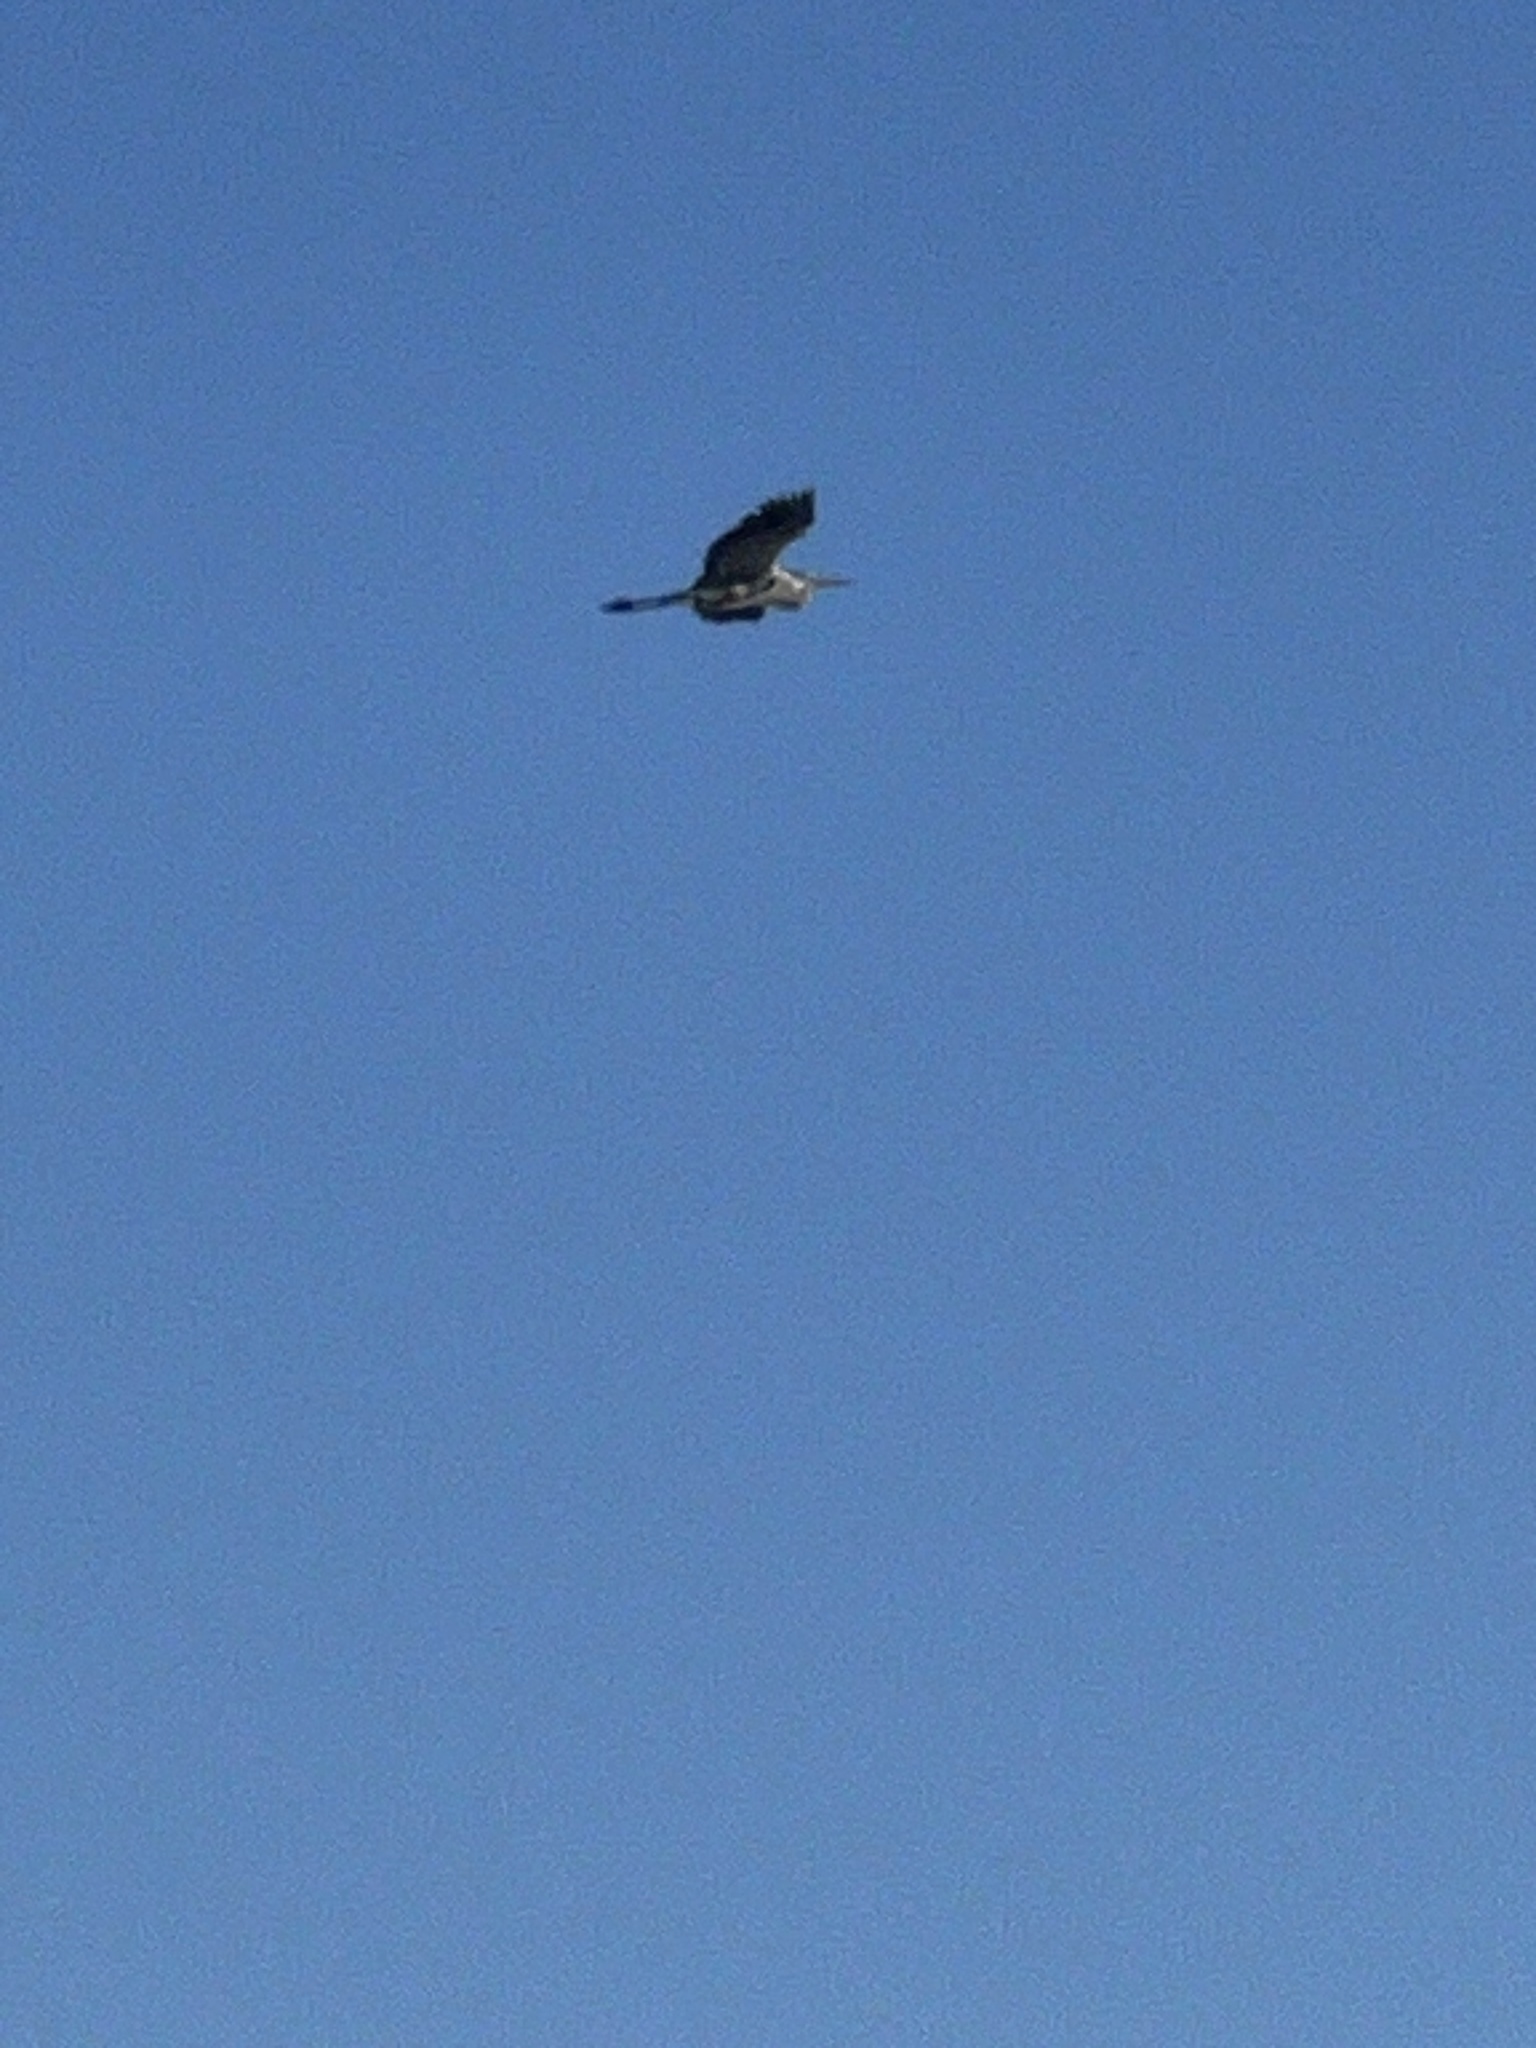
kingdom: Animalia
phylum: Chordata
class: Aves
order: Pelecaniformes
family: Ardeidae
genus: Ardea
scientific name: Ardea herodias
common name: Great blue heron
